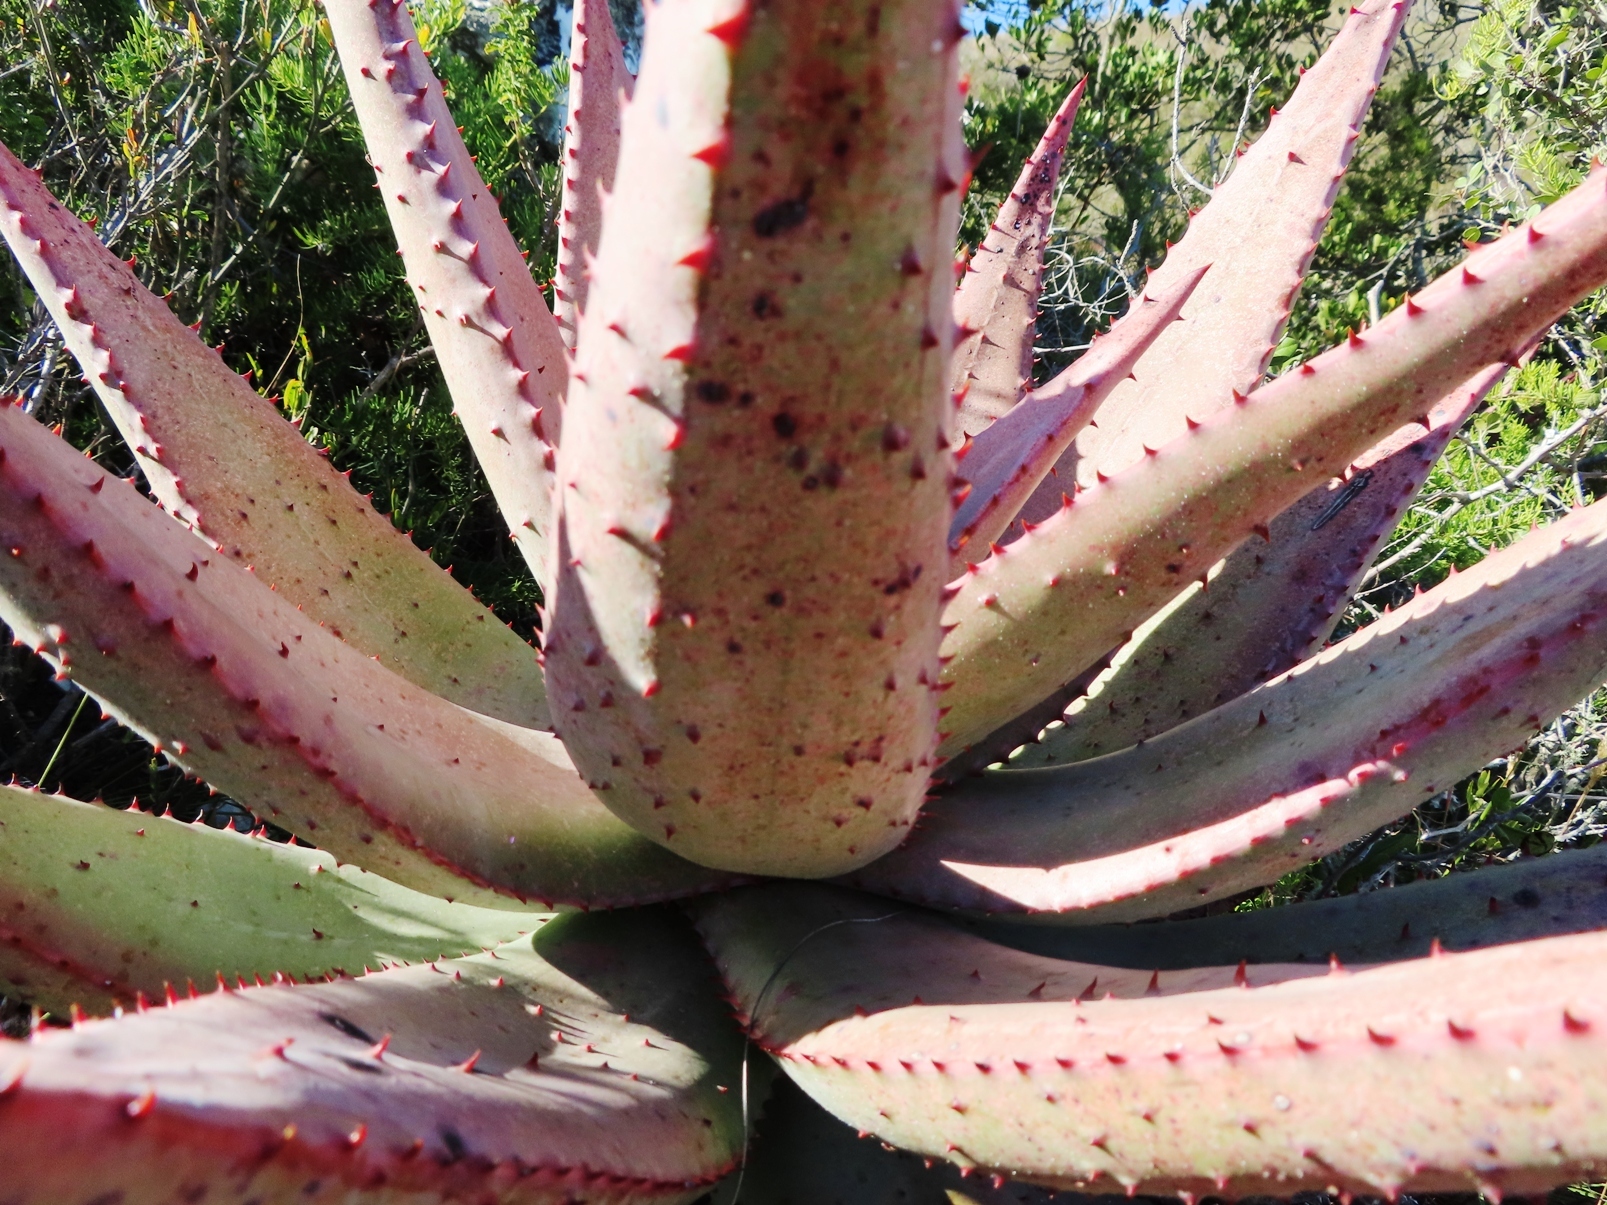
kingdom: Plantae
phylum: Tracheophyta
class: Liliopsida
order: Asparagales
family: Asphodelaceae
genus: Aloe
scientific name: Aloe ferox
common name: Bitter aloe
